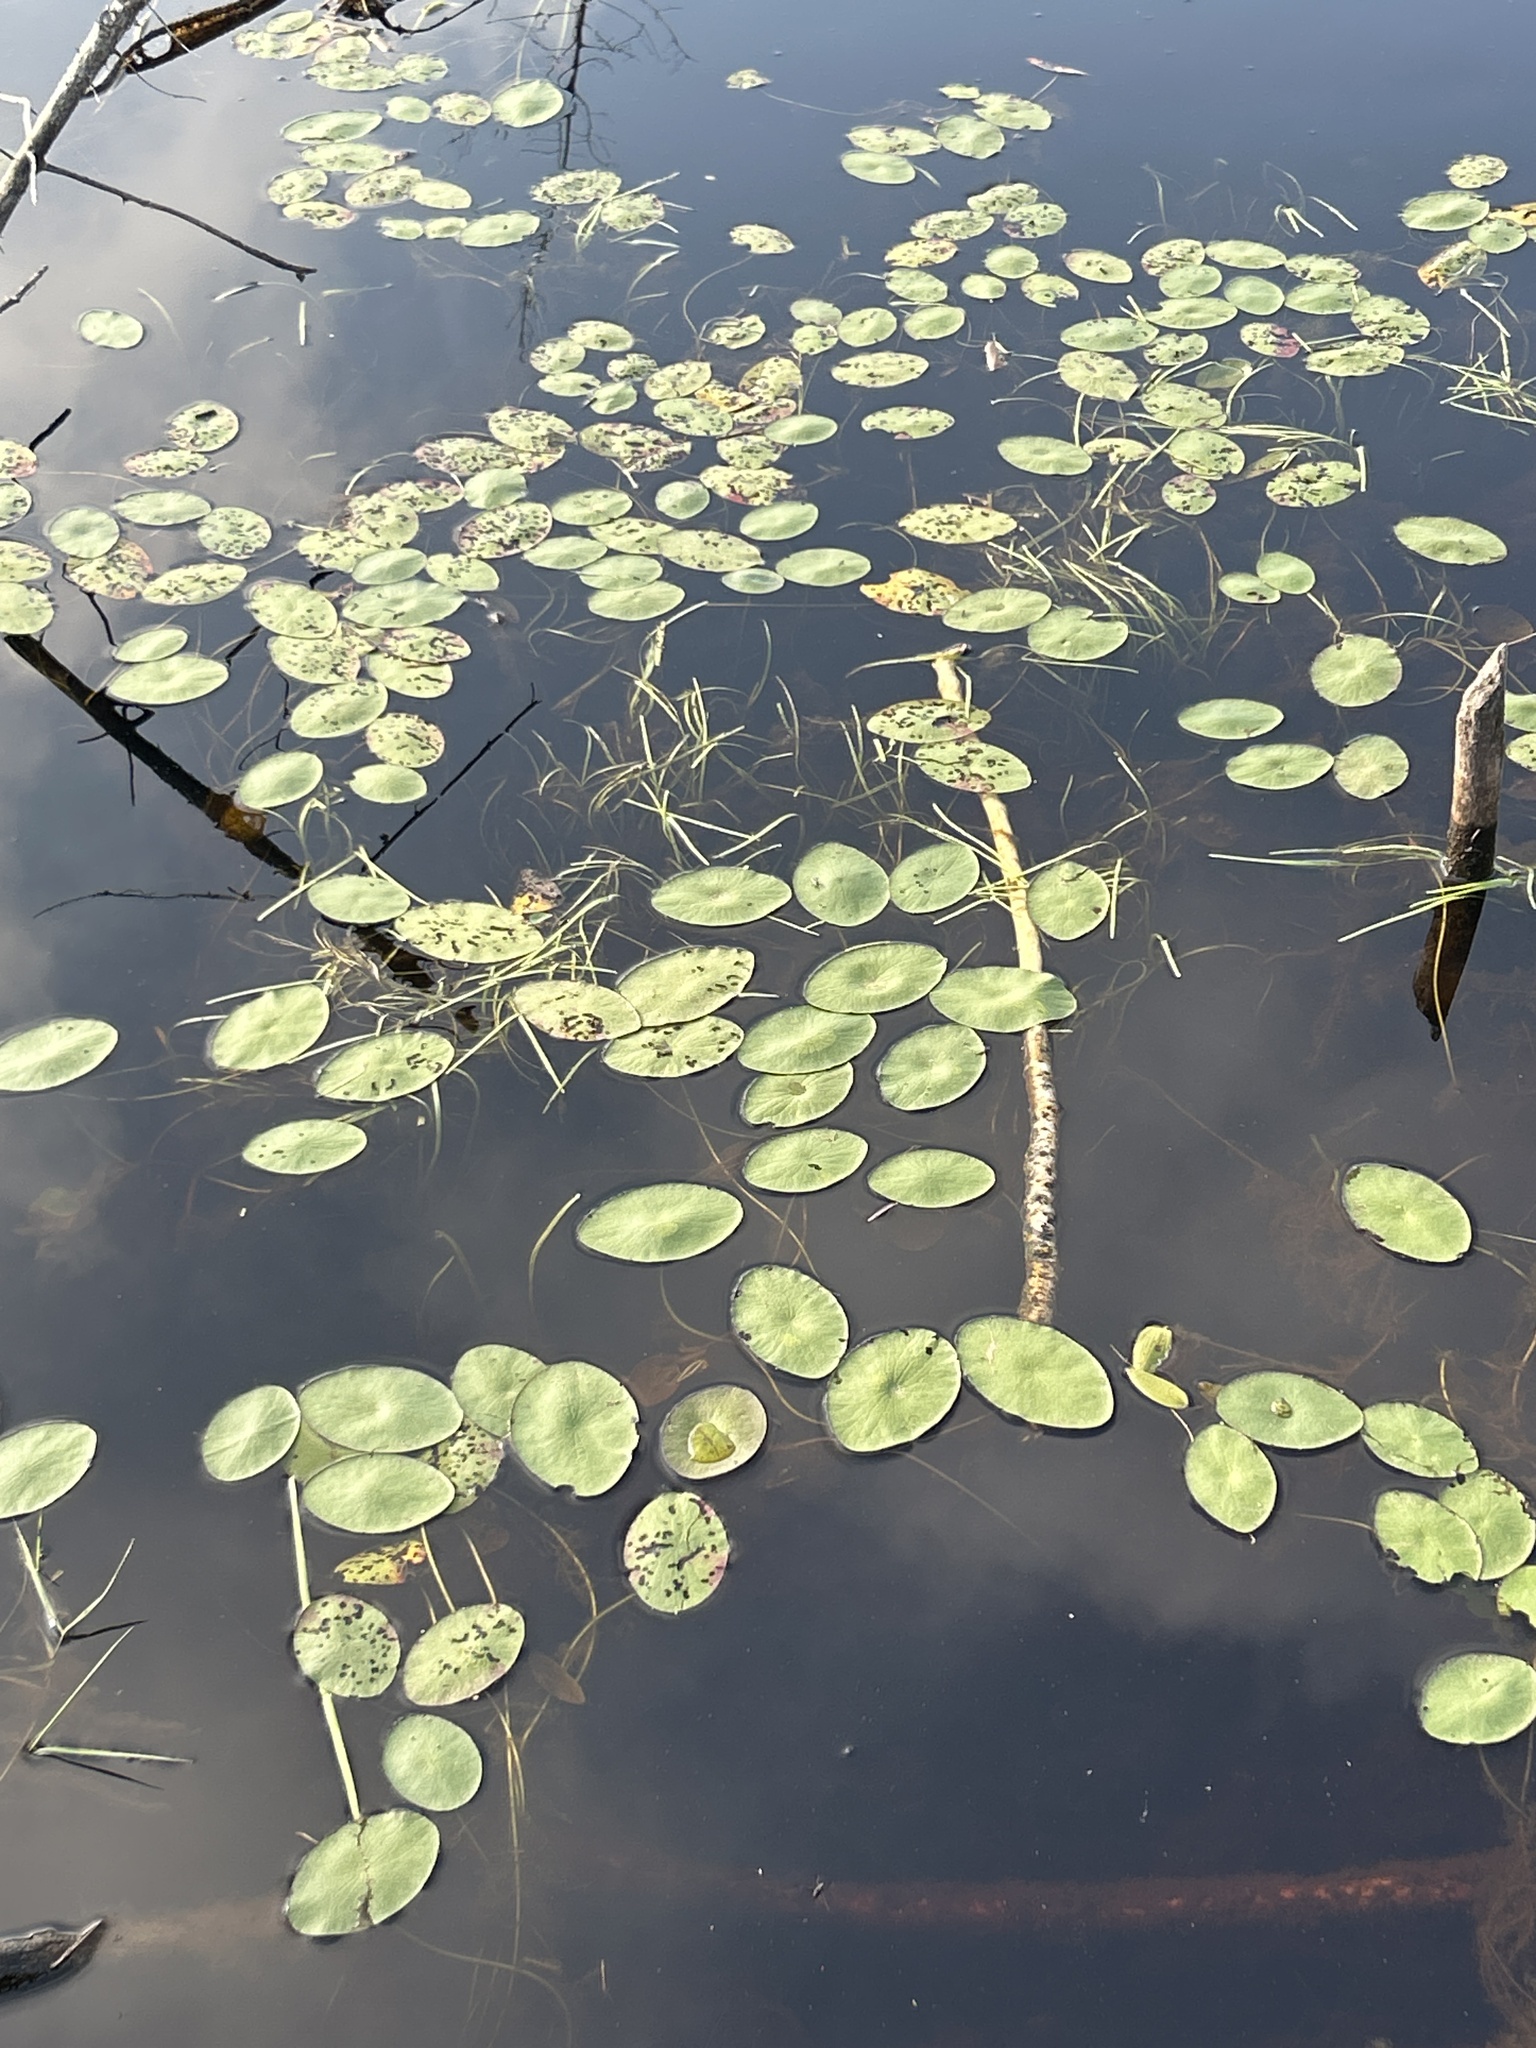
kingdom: Plantae
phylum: Tracheophyta
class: Magnoliopsida
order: Nymphaeales
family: Cabombaceae
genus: Brasenia
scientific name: Brasenia schreberi
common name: Water-shield
